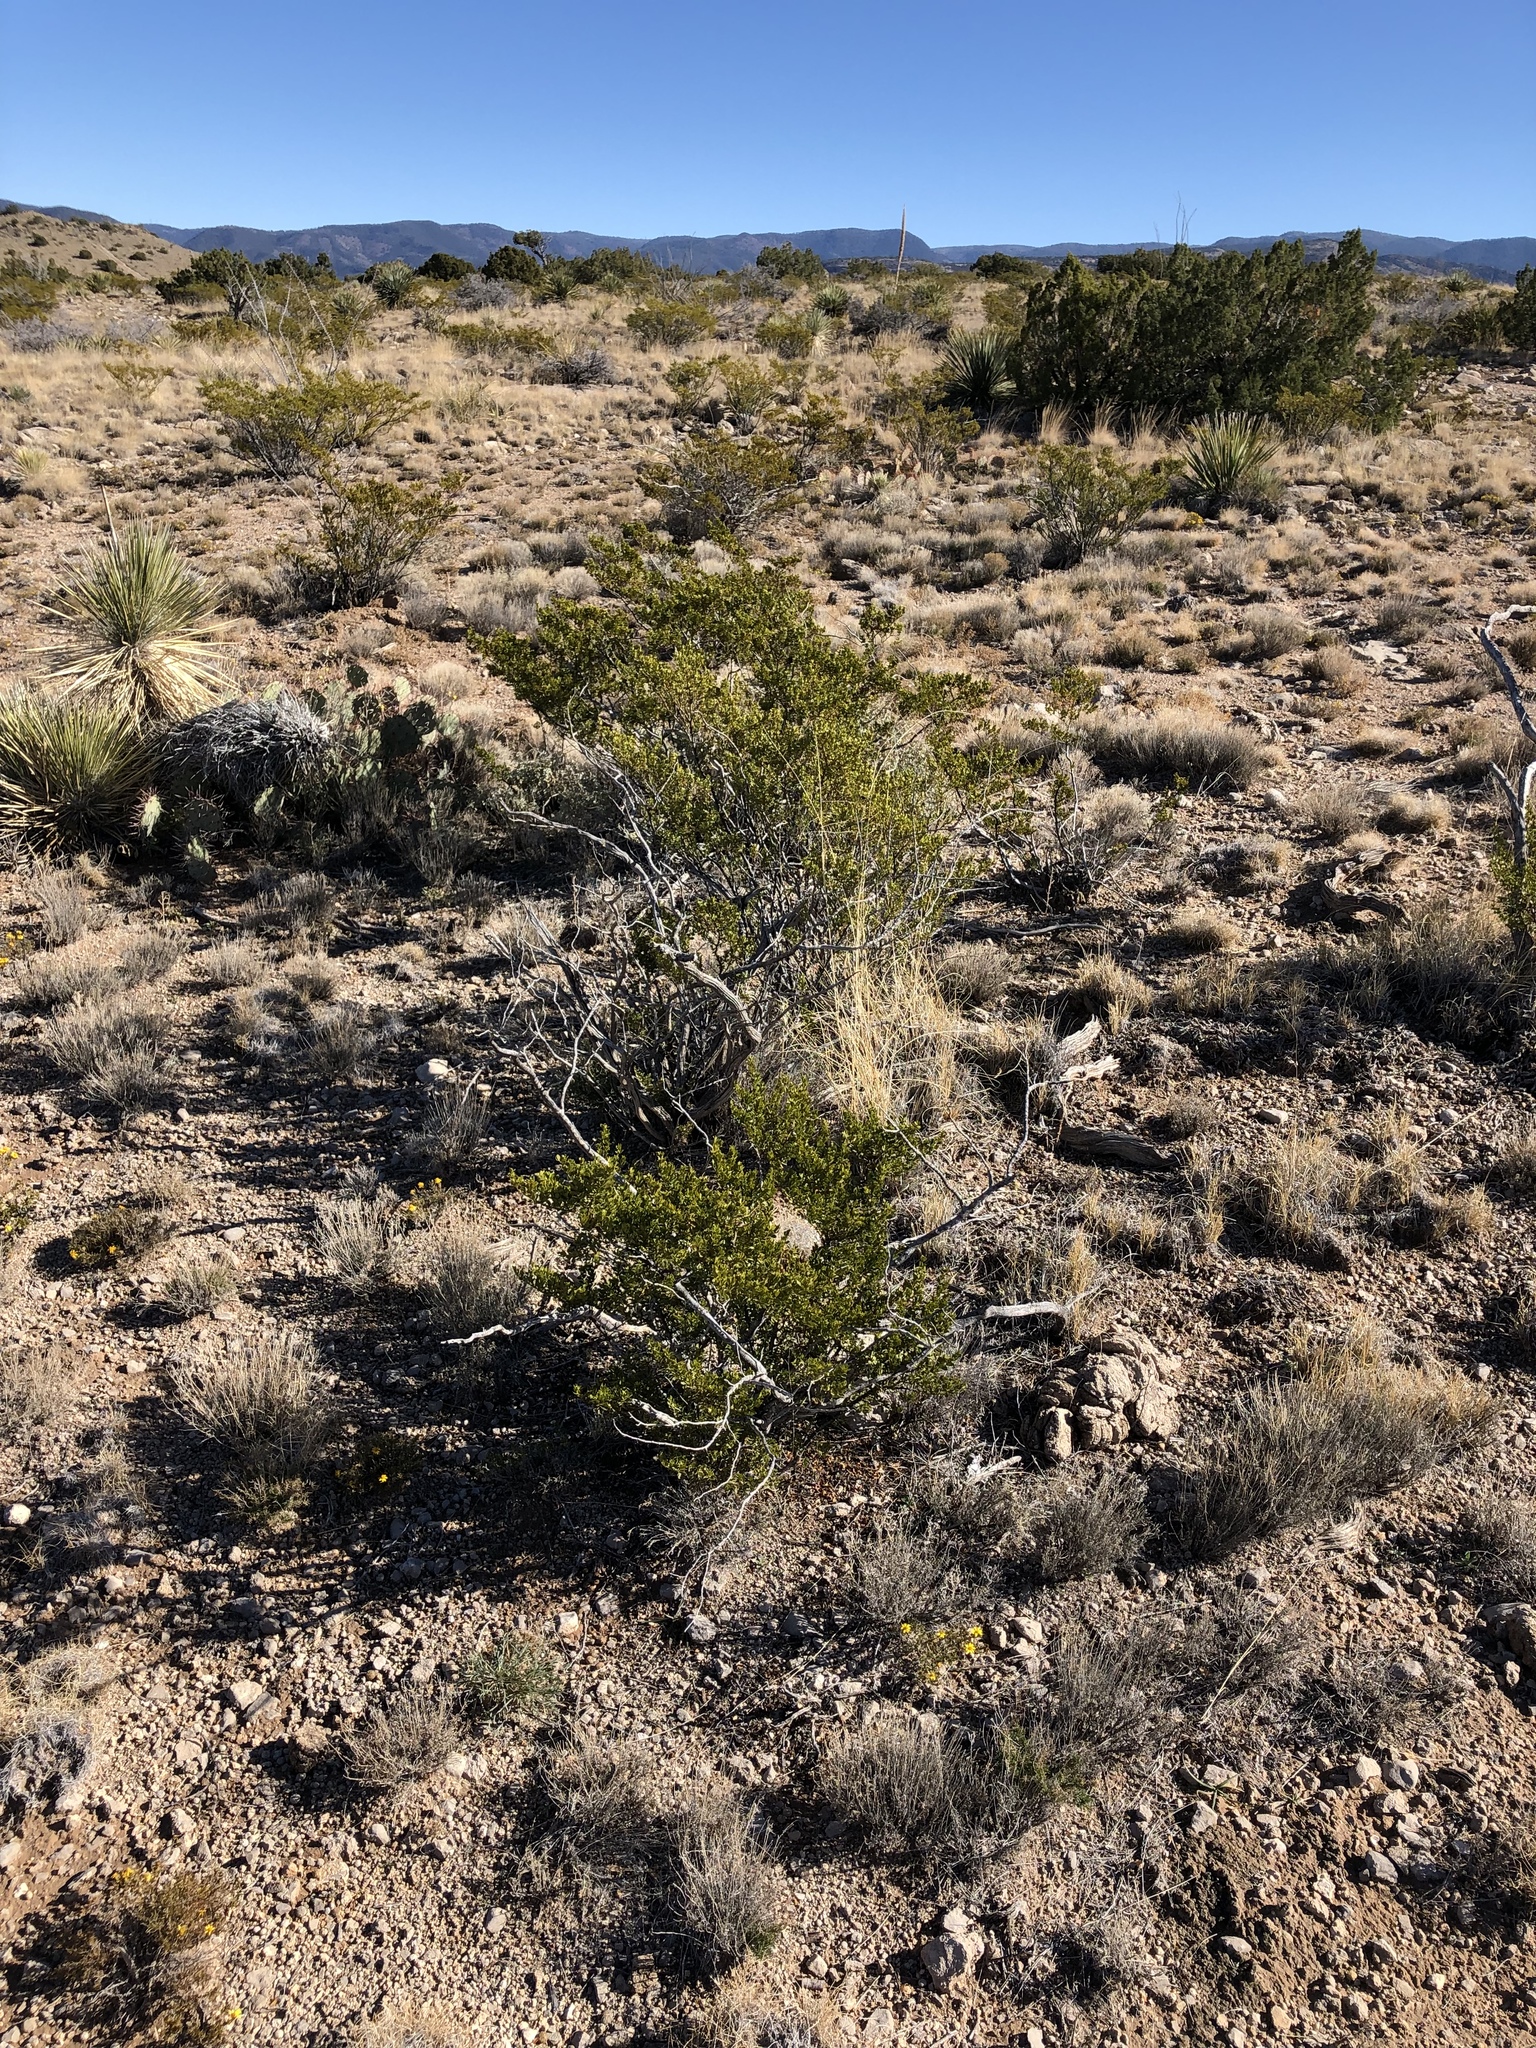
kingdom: Plantae
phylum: Tracheophyta
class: Magnoliopsida
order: Zygophyllales
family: Zygophyllaceae
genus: Larrea
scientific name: Larrea tridentata
